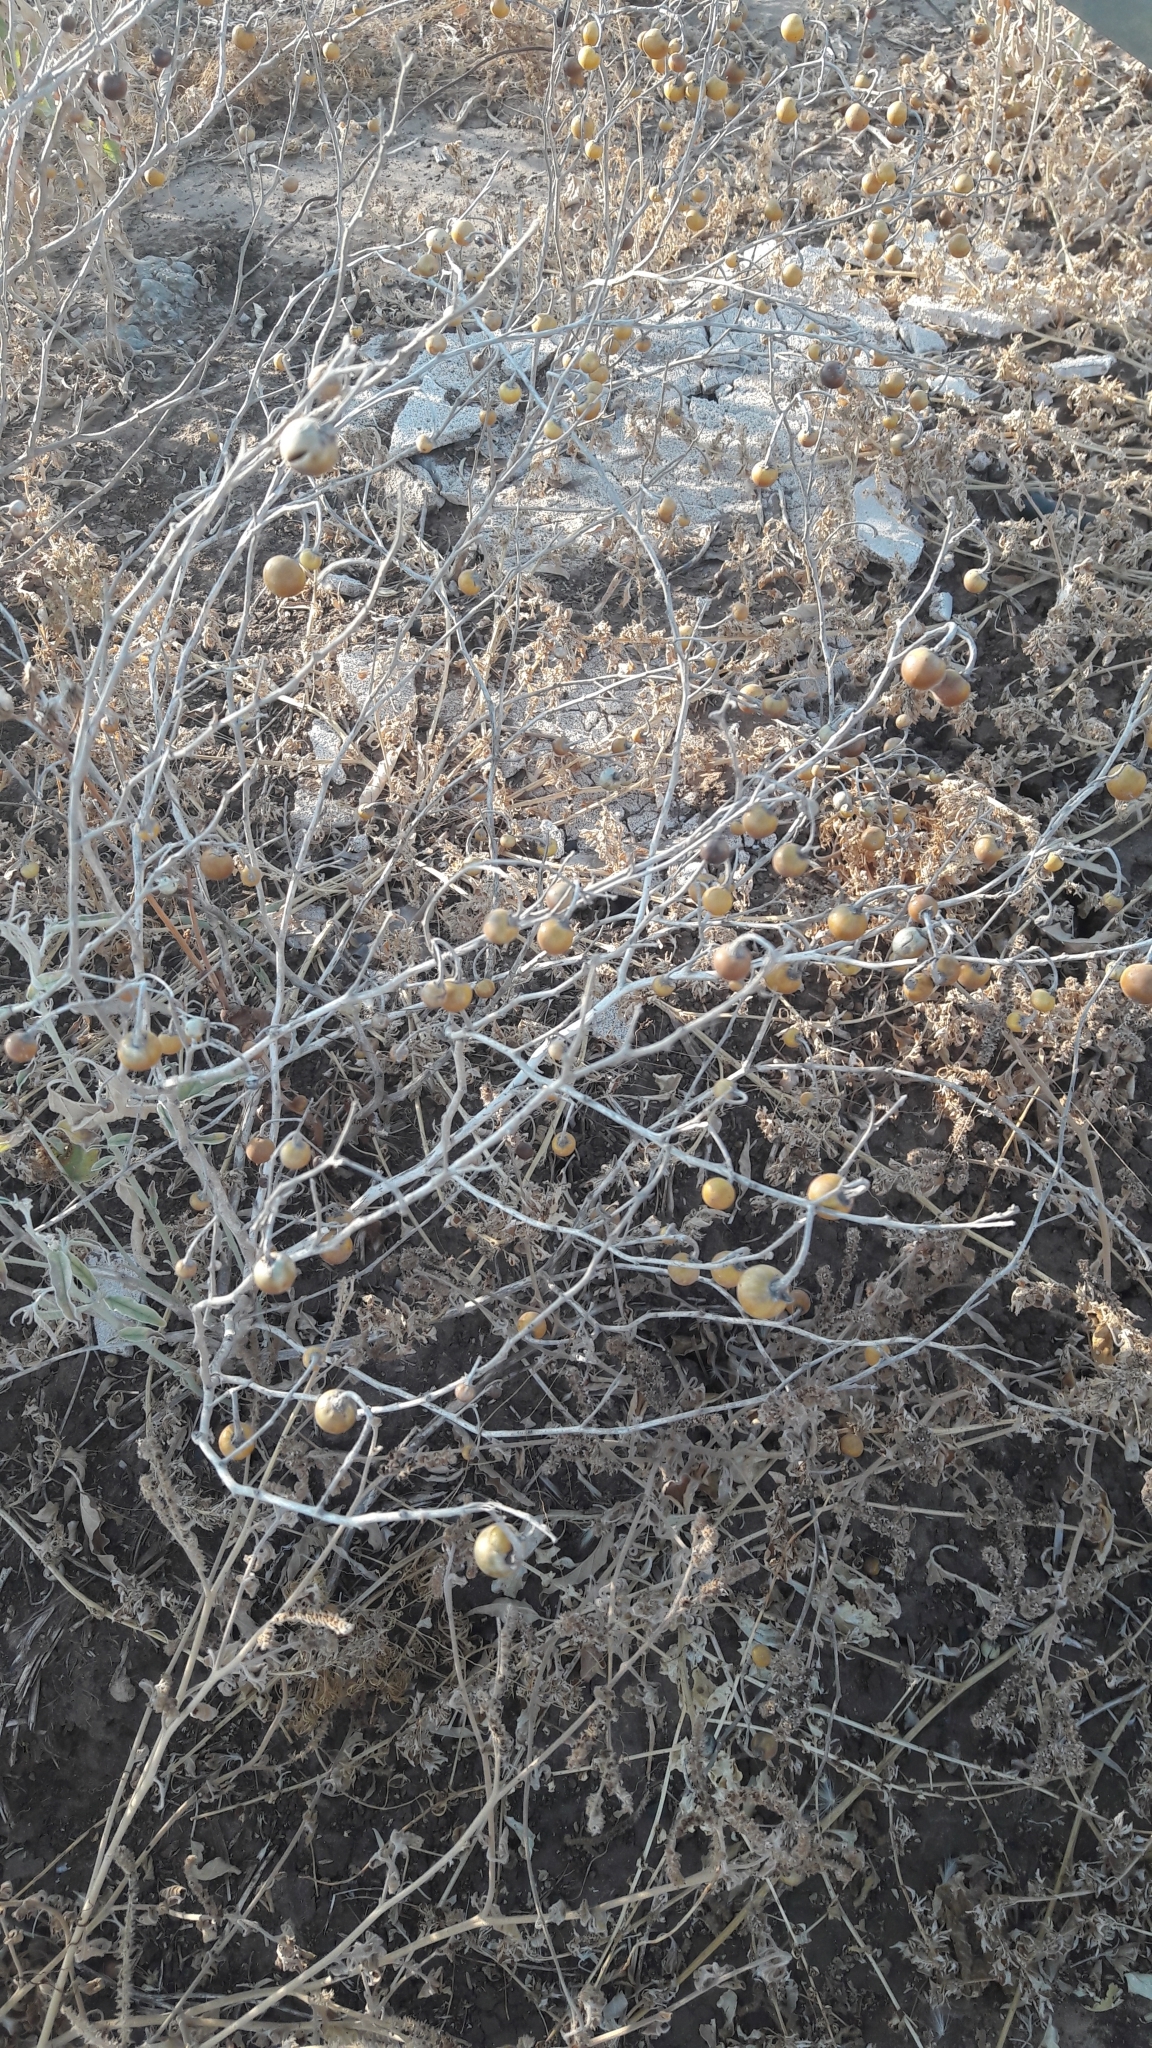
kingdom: Plantae
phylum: Tracheophyta
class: Magnoliopsida
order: Solanales
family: Solanaceae
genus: Solanum
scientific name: Solanum elaeagnifolium
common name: Silverleaf nightshade
